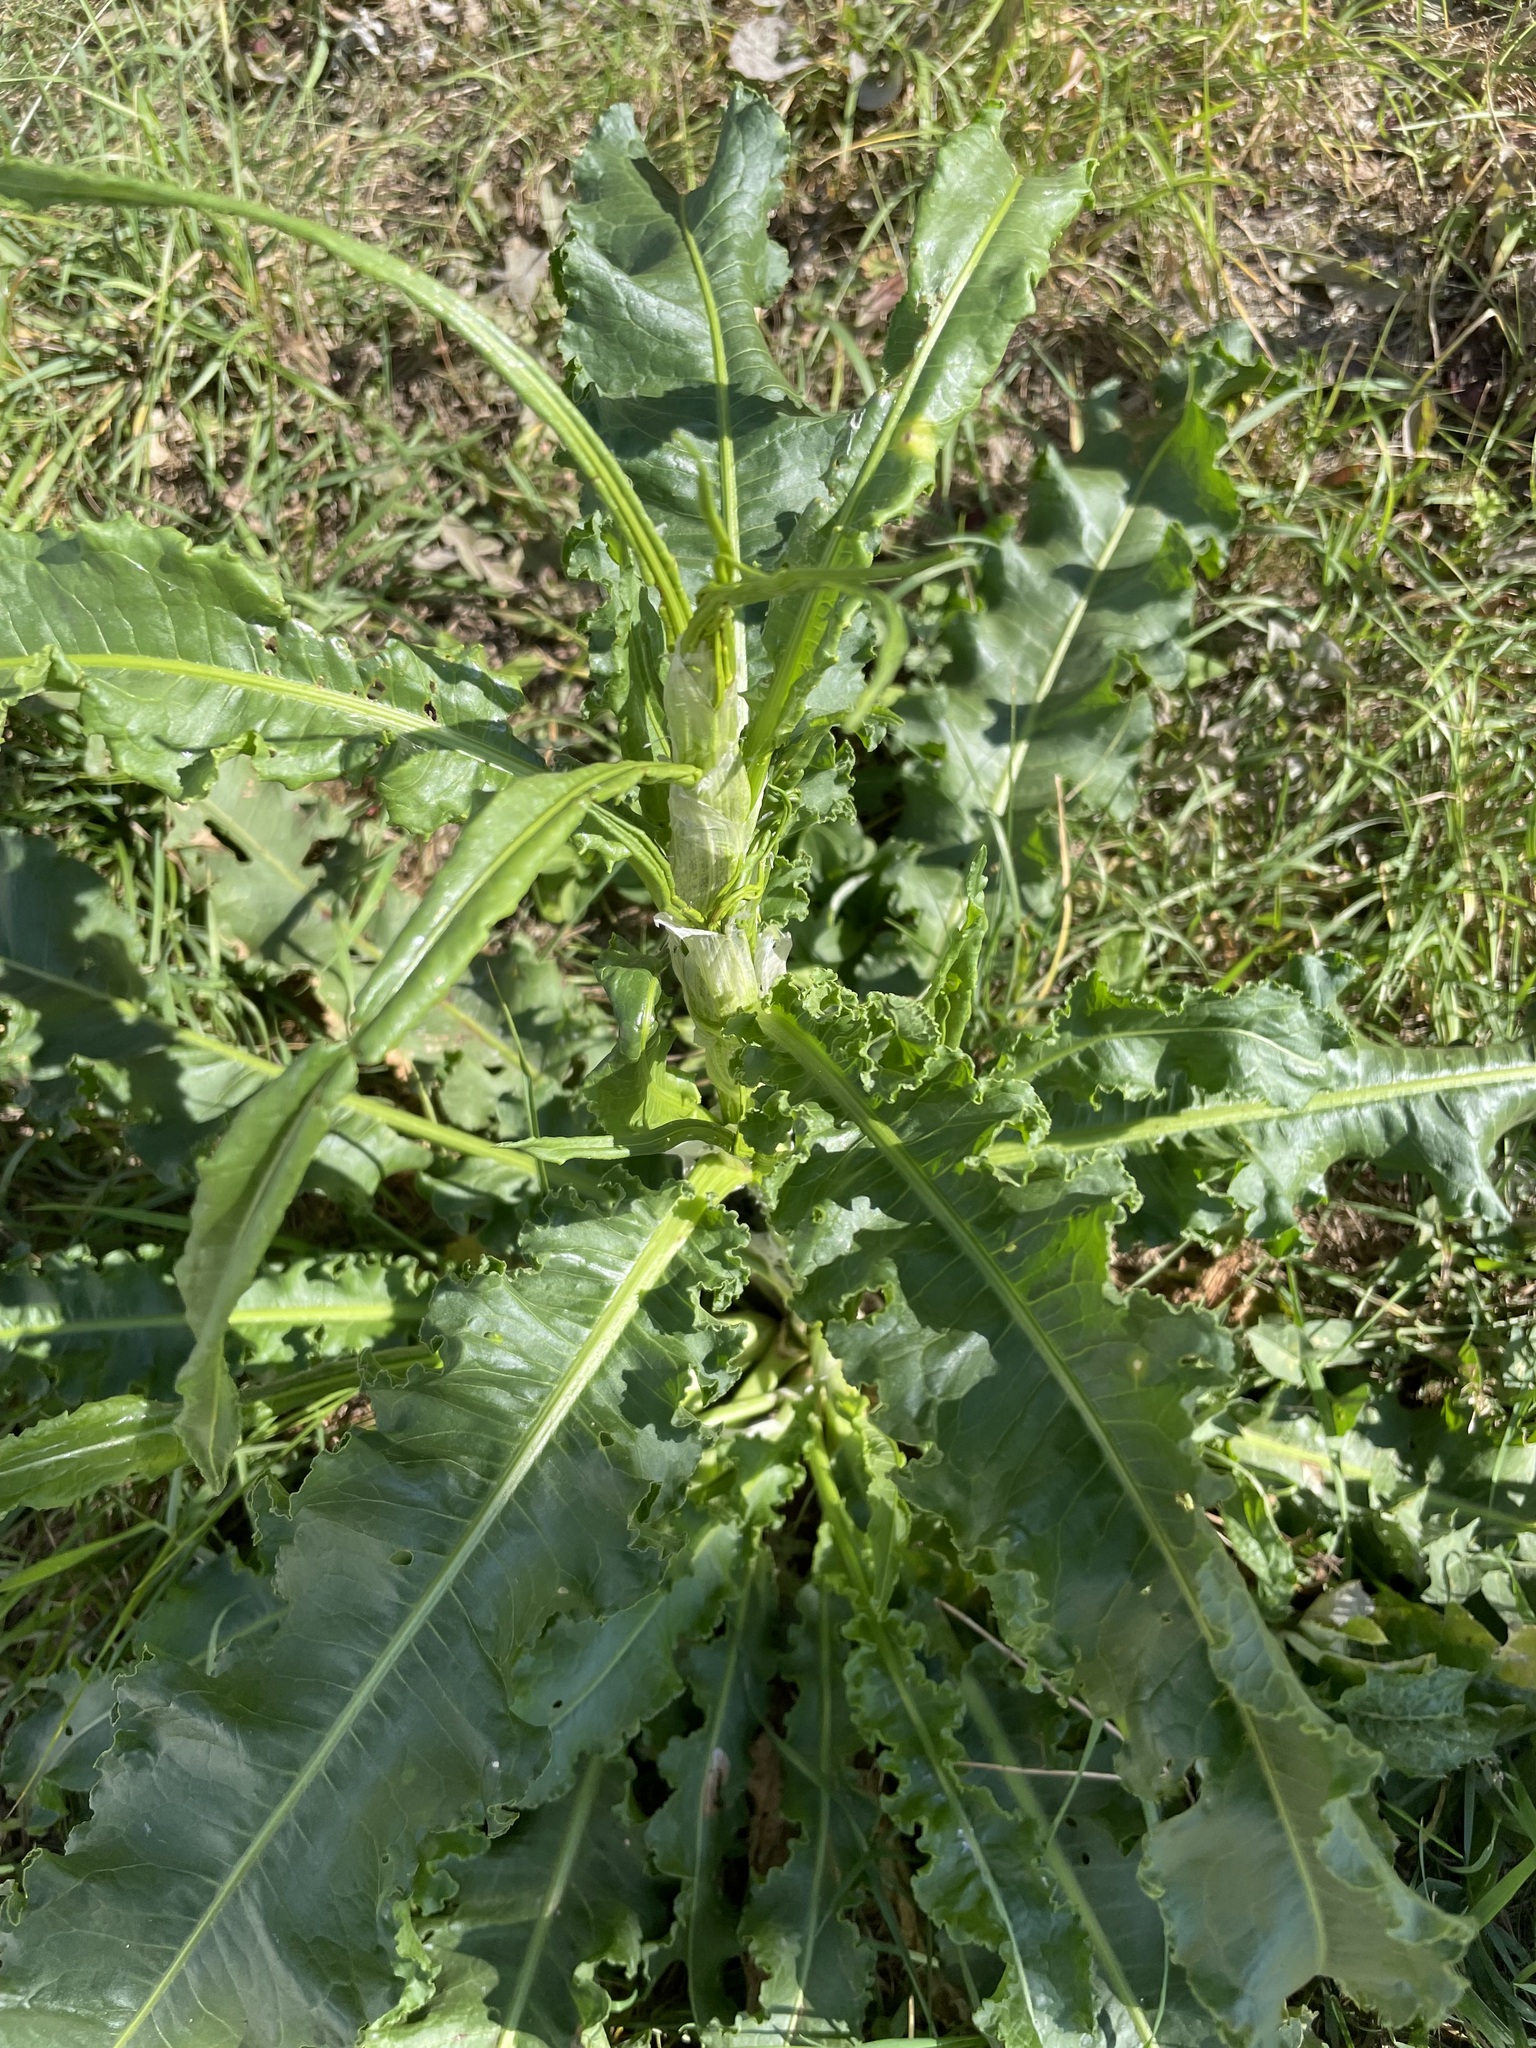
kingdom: Plantae
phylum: Tracheophyta
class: Magnoliopsida
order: Caryophyllales
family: Polygonaceae
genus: Rumex
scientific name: Rumex crispus
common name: Curled dock
